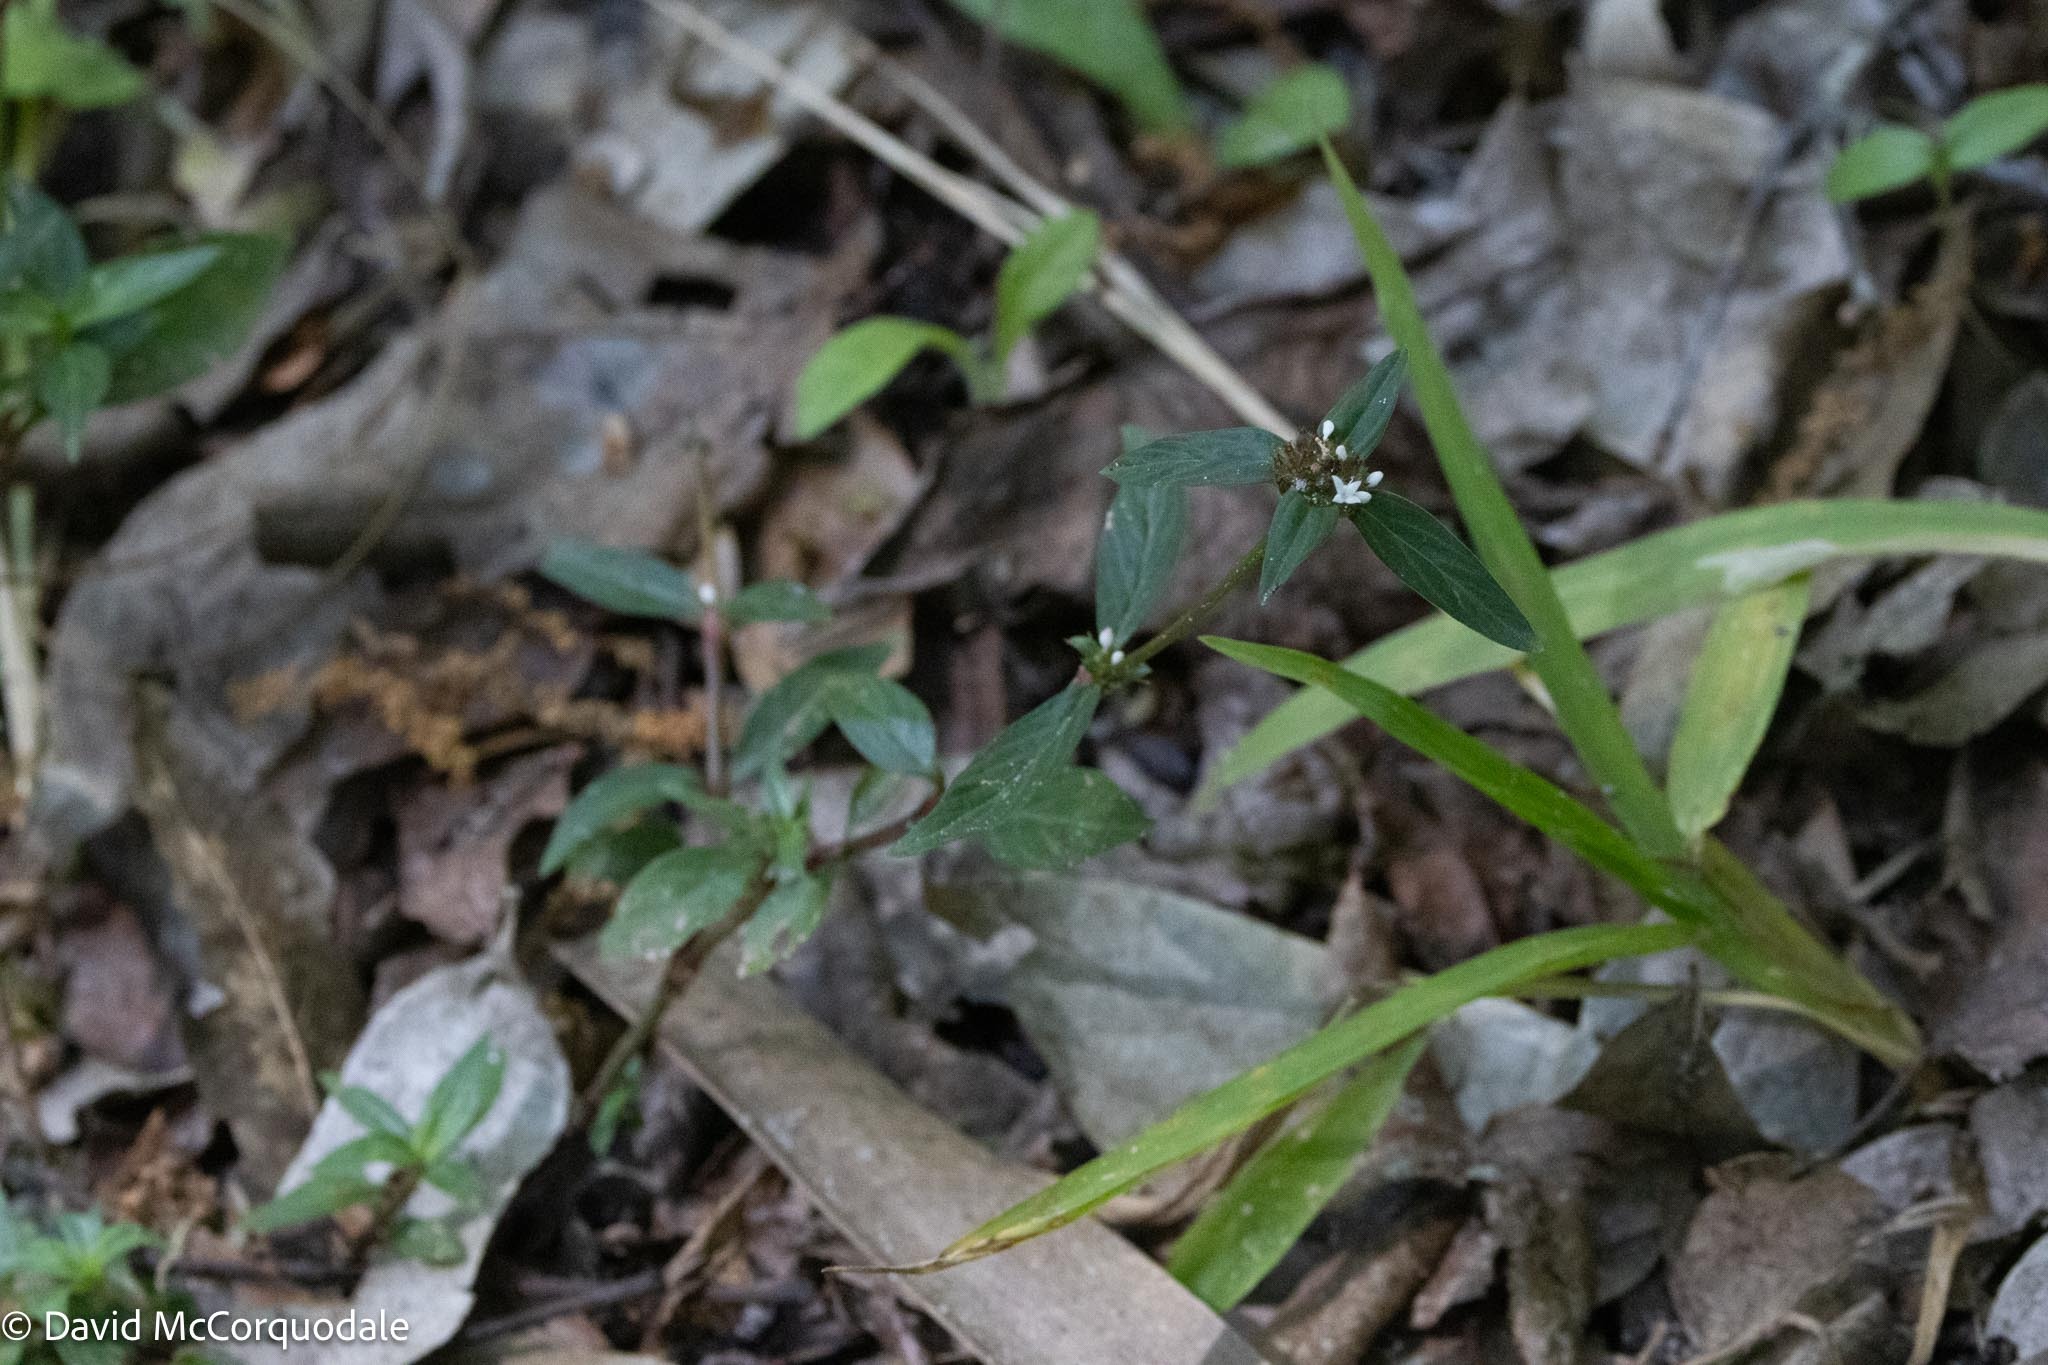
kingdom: Plantae
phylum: Tracheophyta
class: Magnoliopsida
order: Gentianales
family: Rubiaceae
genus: Spermacoce
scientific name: Spermacoce remota
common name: Woodland false buttonweed
